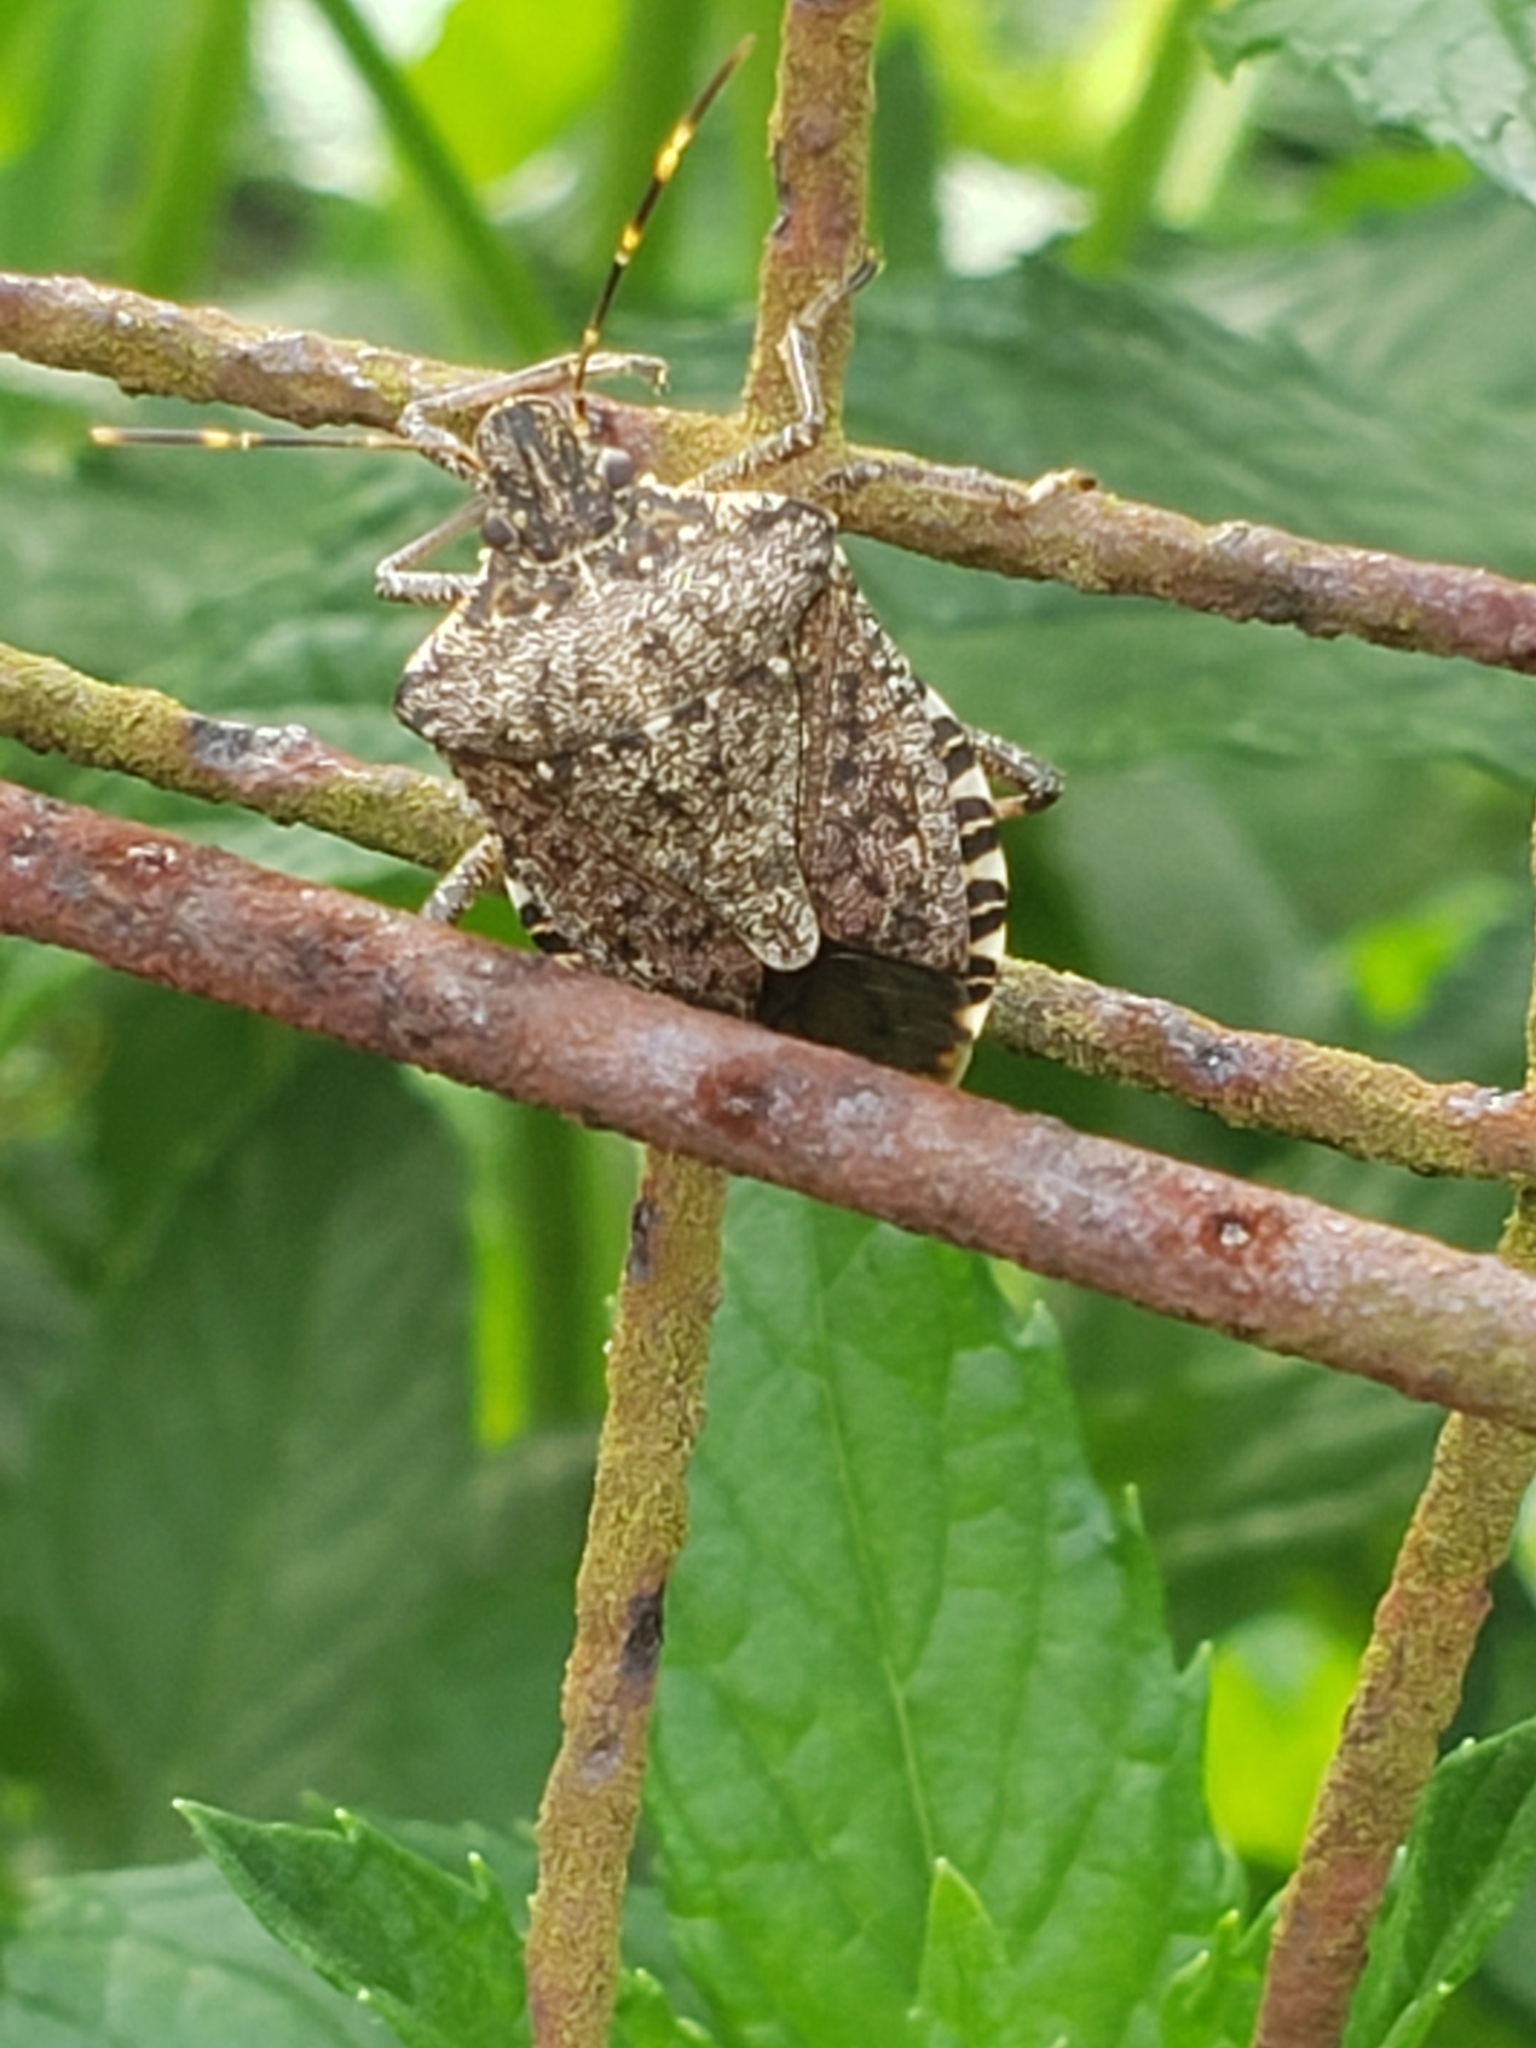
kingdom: Animalia
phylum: Arthropoda
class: Insecta
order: Hemiptera
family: Pentatomidae
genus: Halyomorpha
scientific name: Halyomorpha halys
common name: Brown marmorated stink bug
